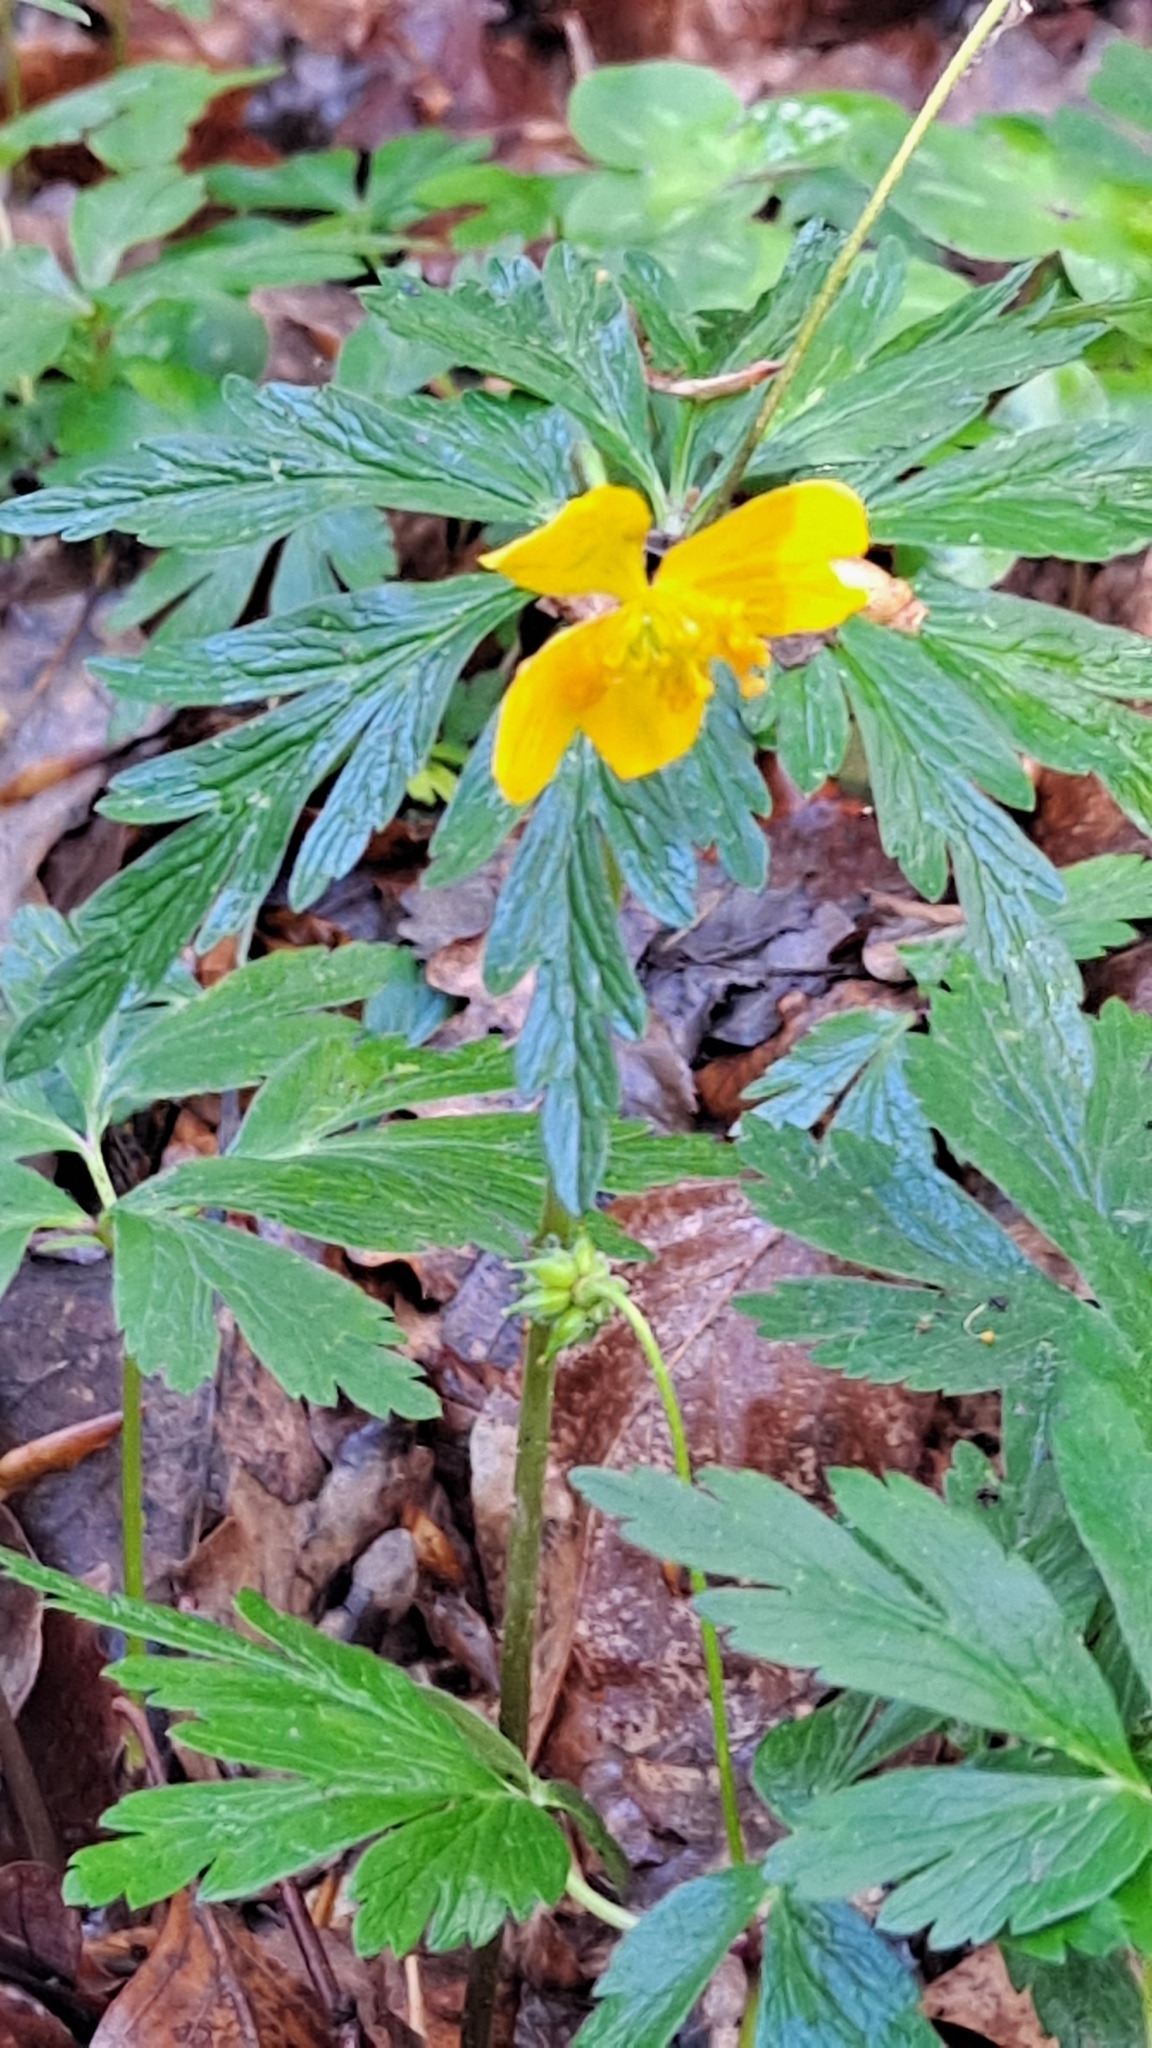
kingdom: Plantae
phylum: Tracheophyta
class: Magnoliopsida
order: Ranunculales
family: Ranunculaceae
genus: Anemone
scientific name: Anemone ranunculoides
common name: Yellow anemone
